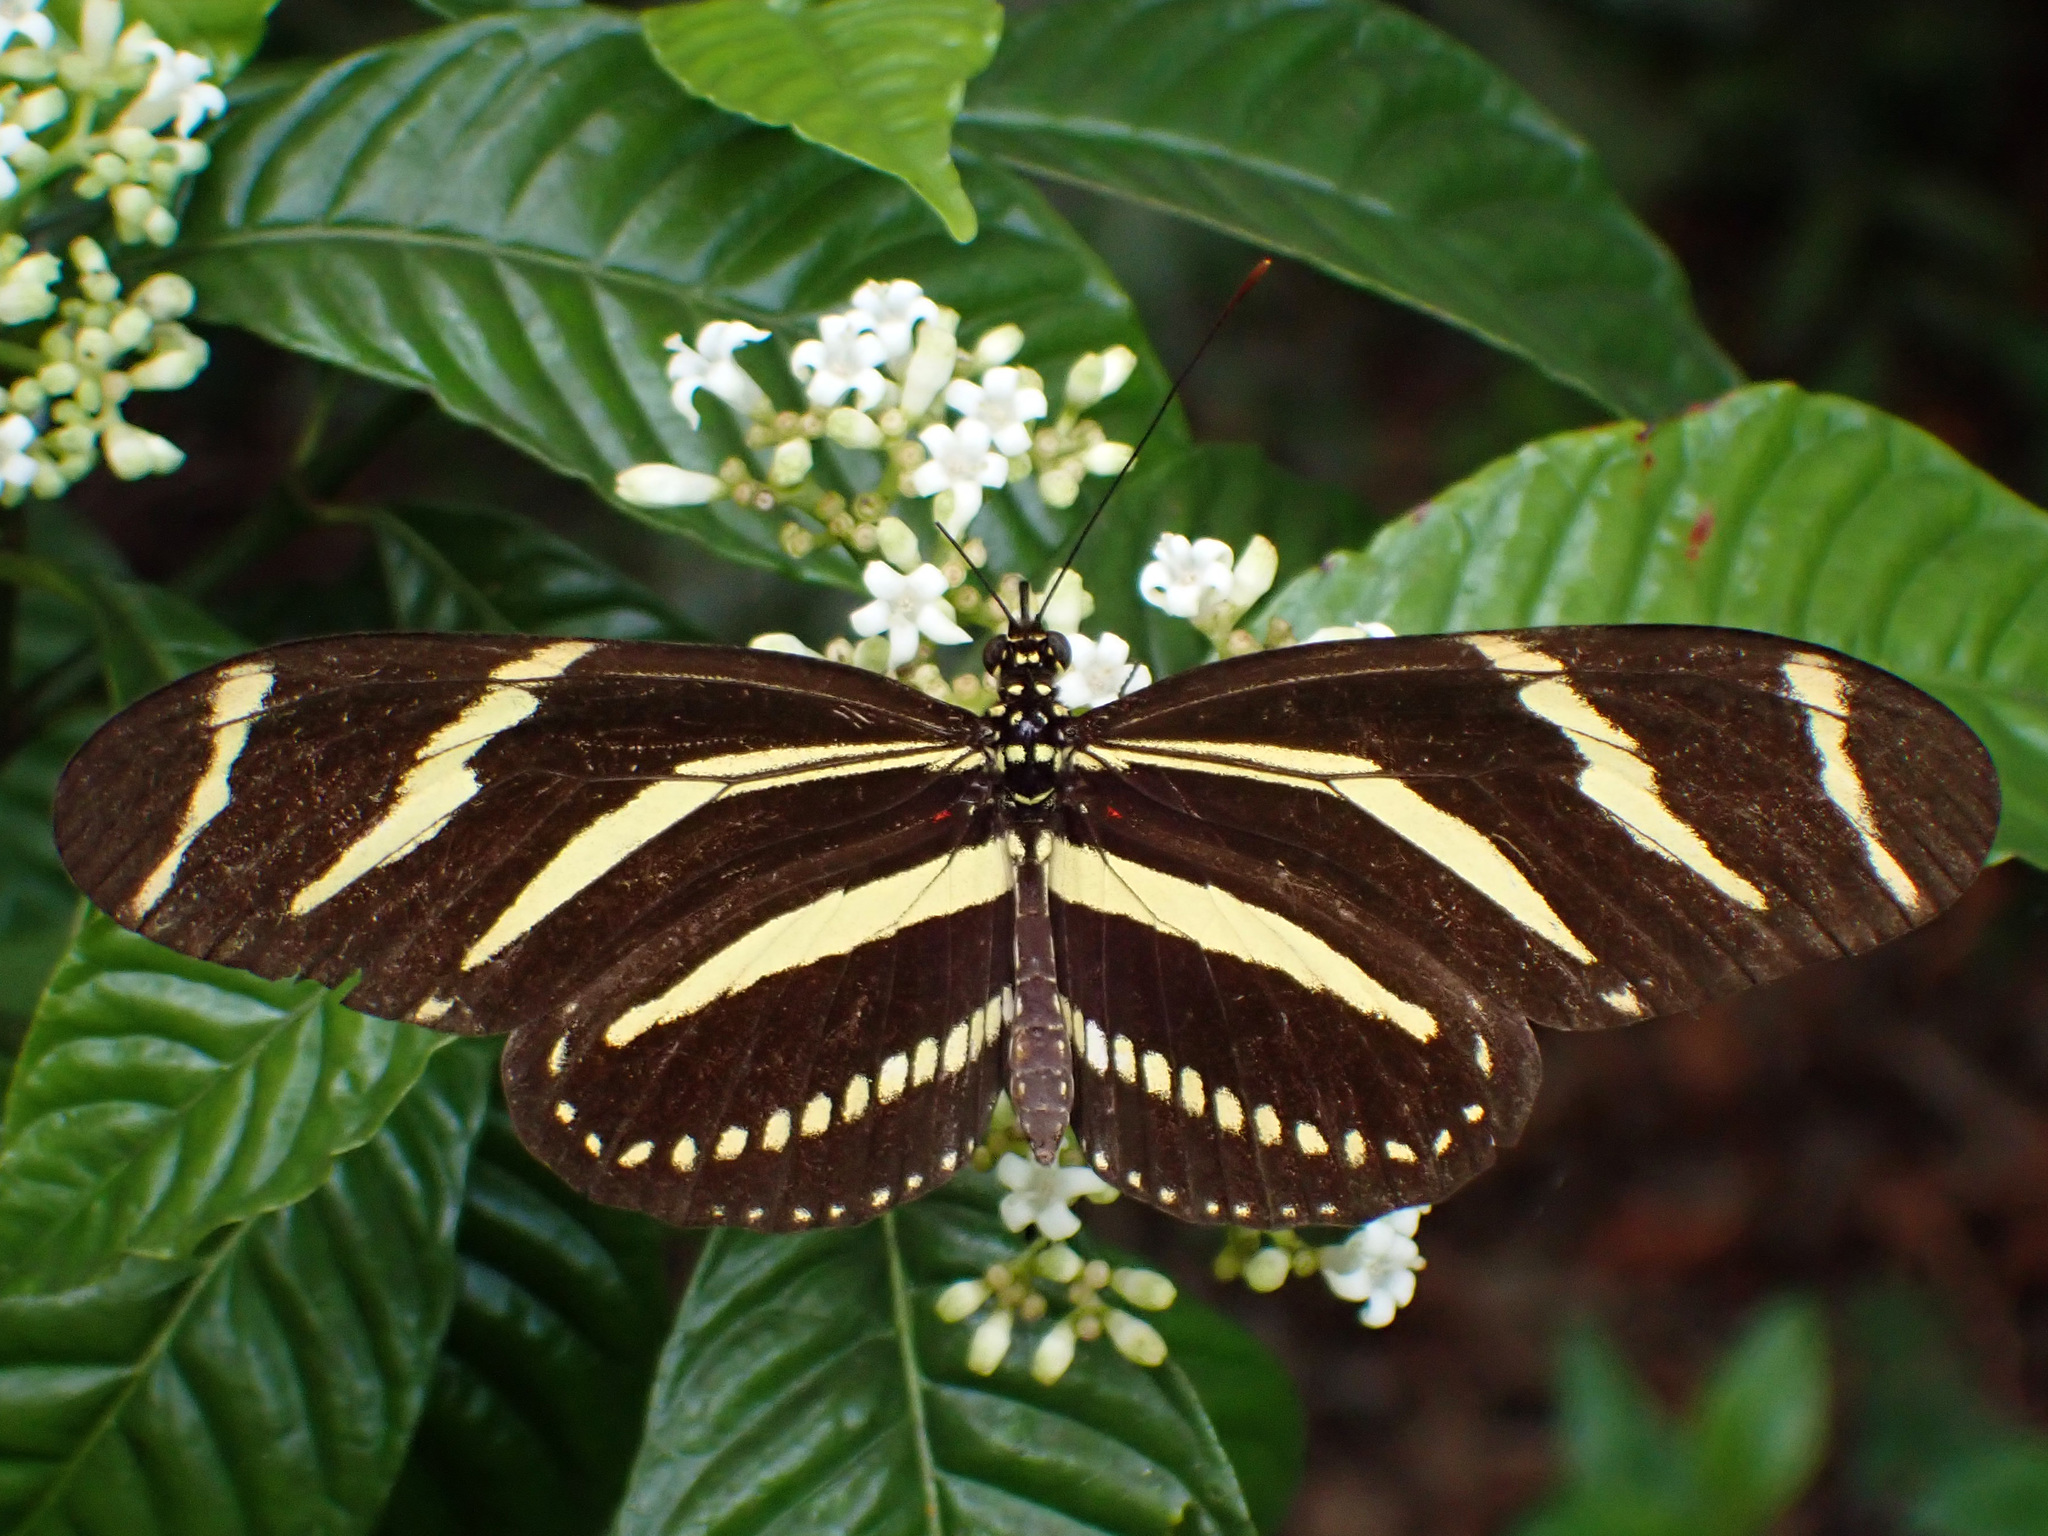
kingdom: Animalia
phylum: Arthropoda
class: Insecta
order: Lepidoptera
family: Nymphalidae
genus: Heliconius
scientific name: Heliconius charithonia
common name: Zebra long wing
